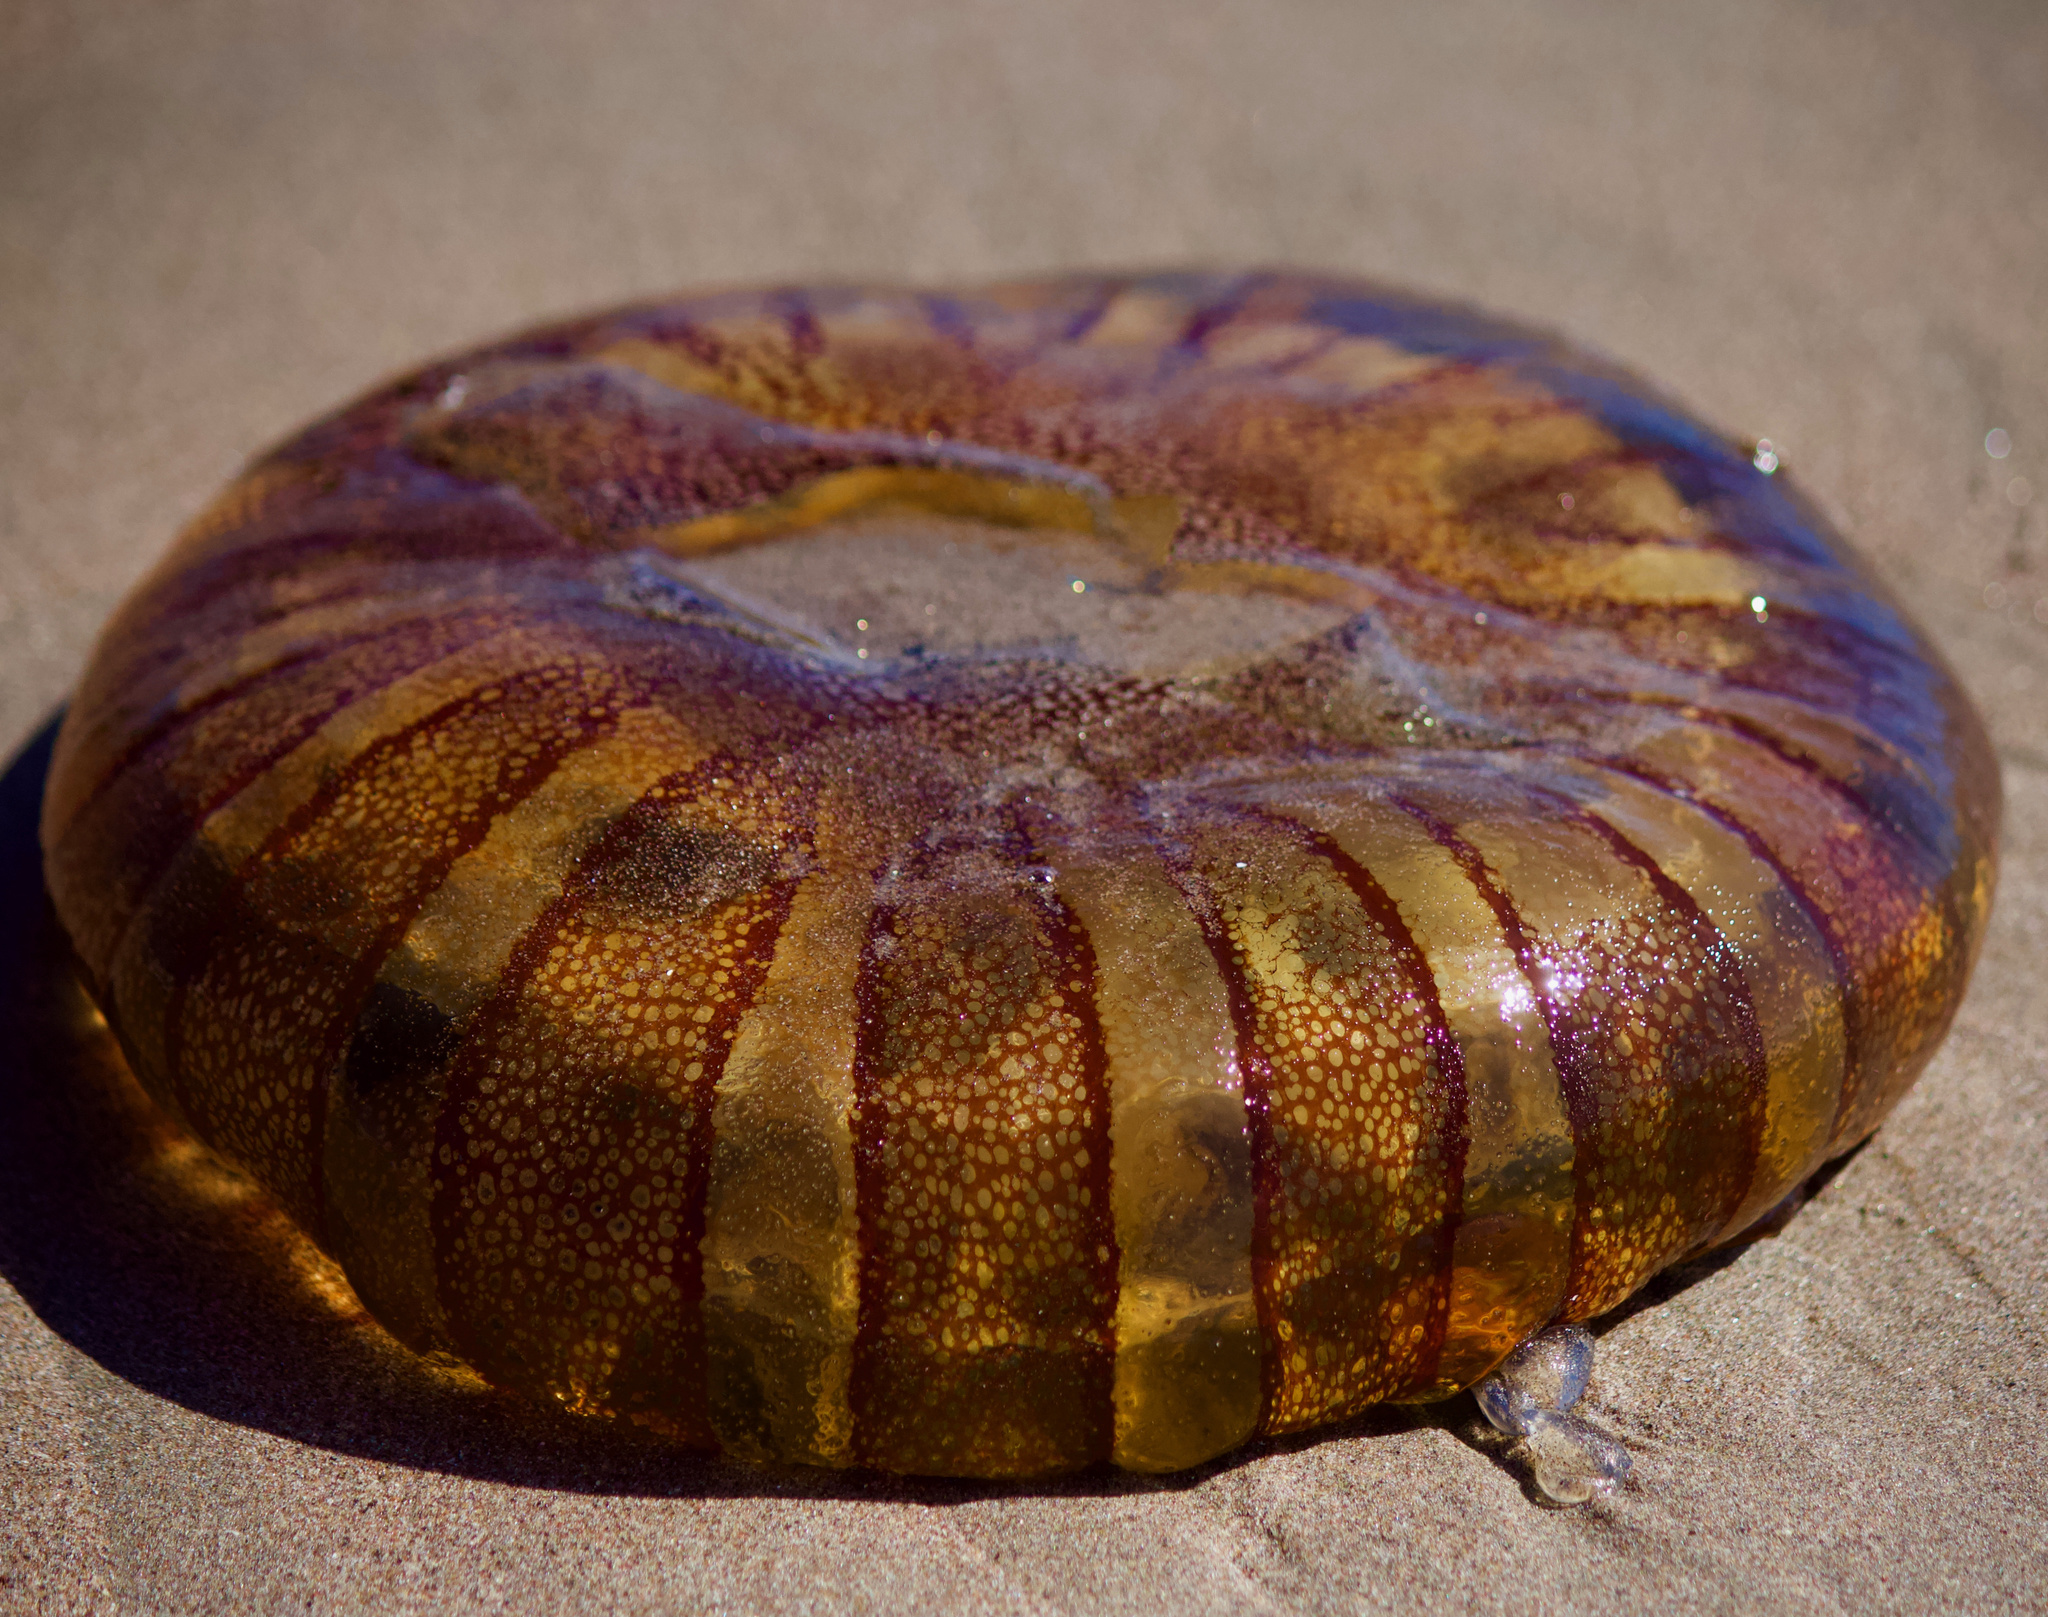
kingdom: Animalia
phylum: Cnidaria
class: Scyphozoa
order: Semaeostomeae
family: Pelagiidae
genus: Chrysaora
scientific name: Chrysaora plocamia
